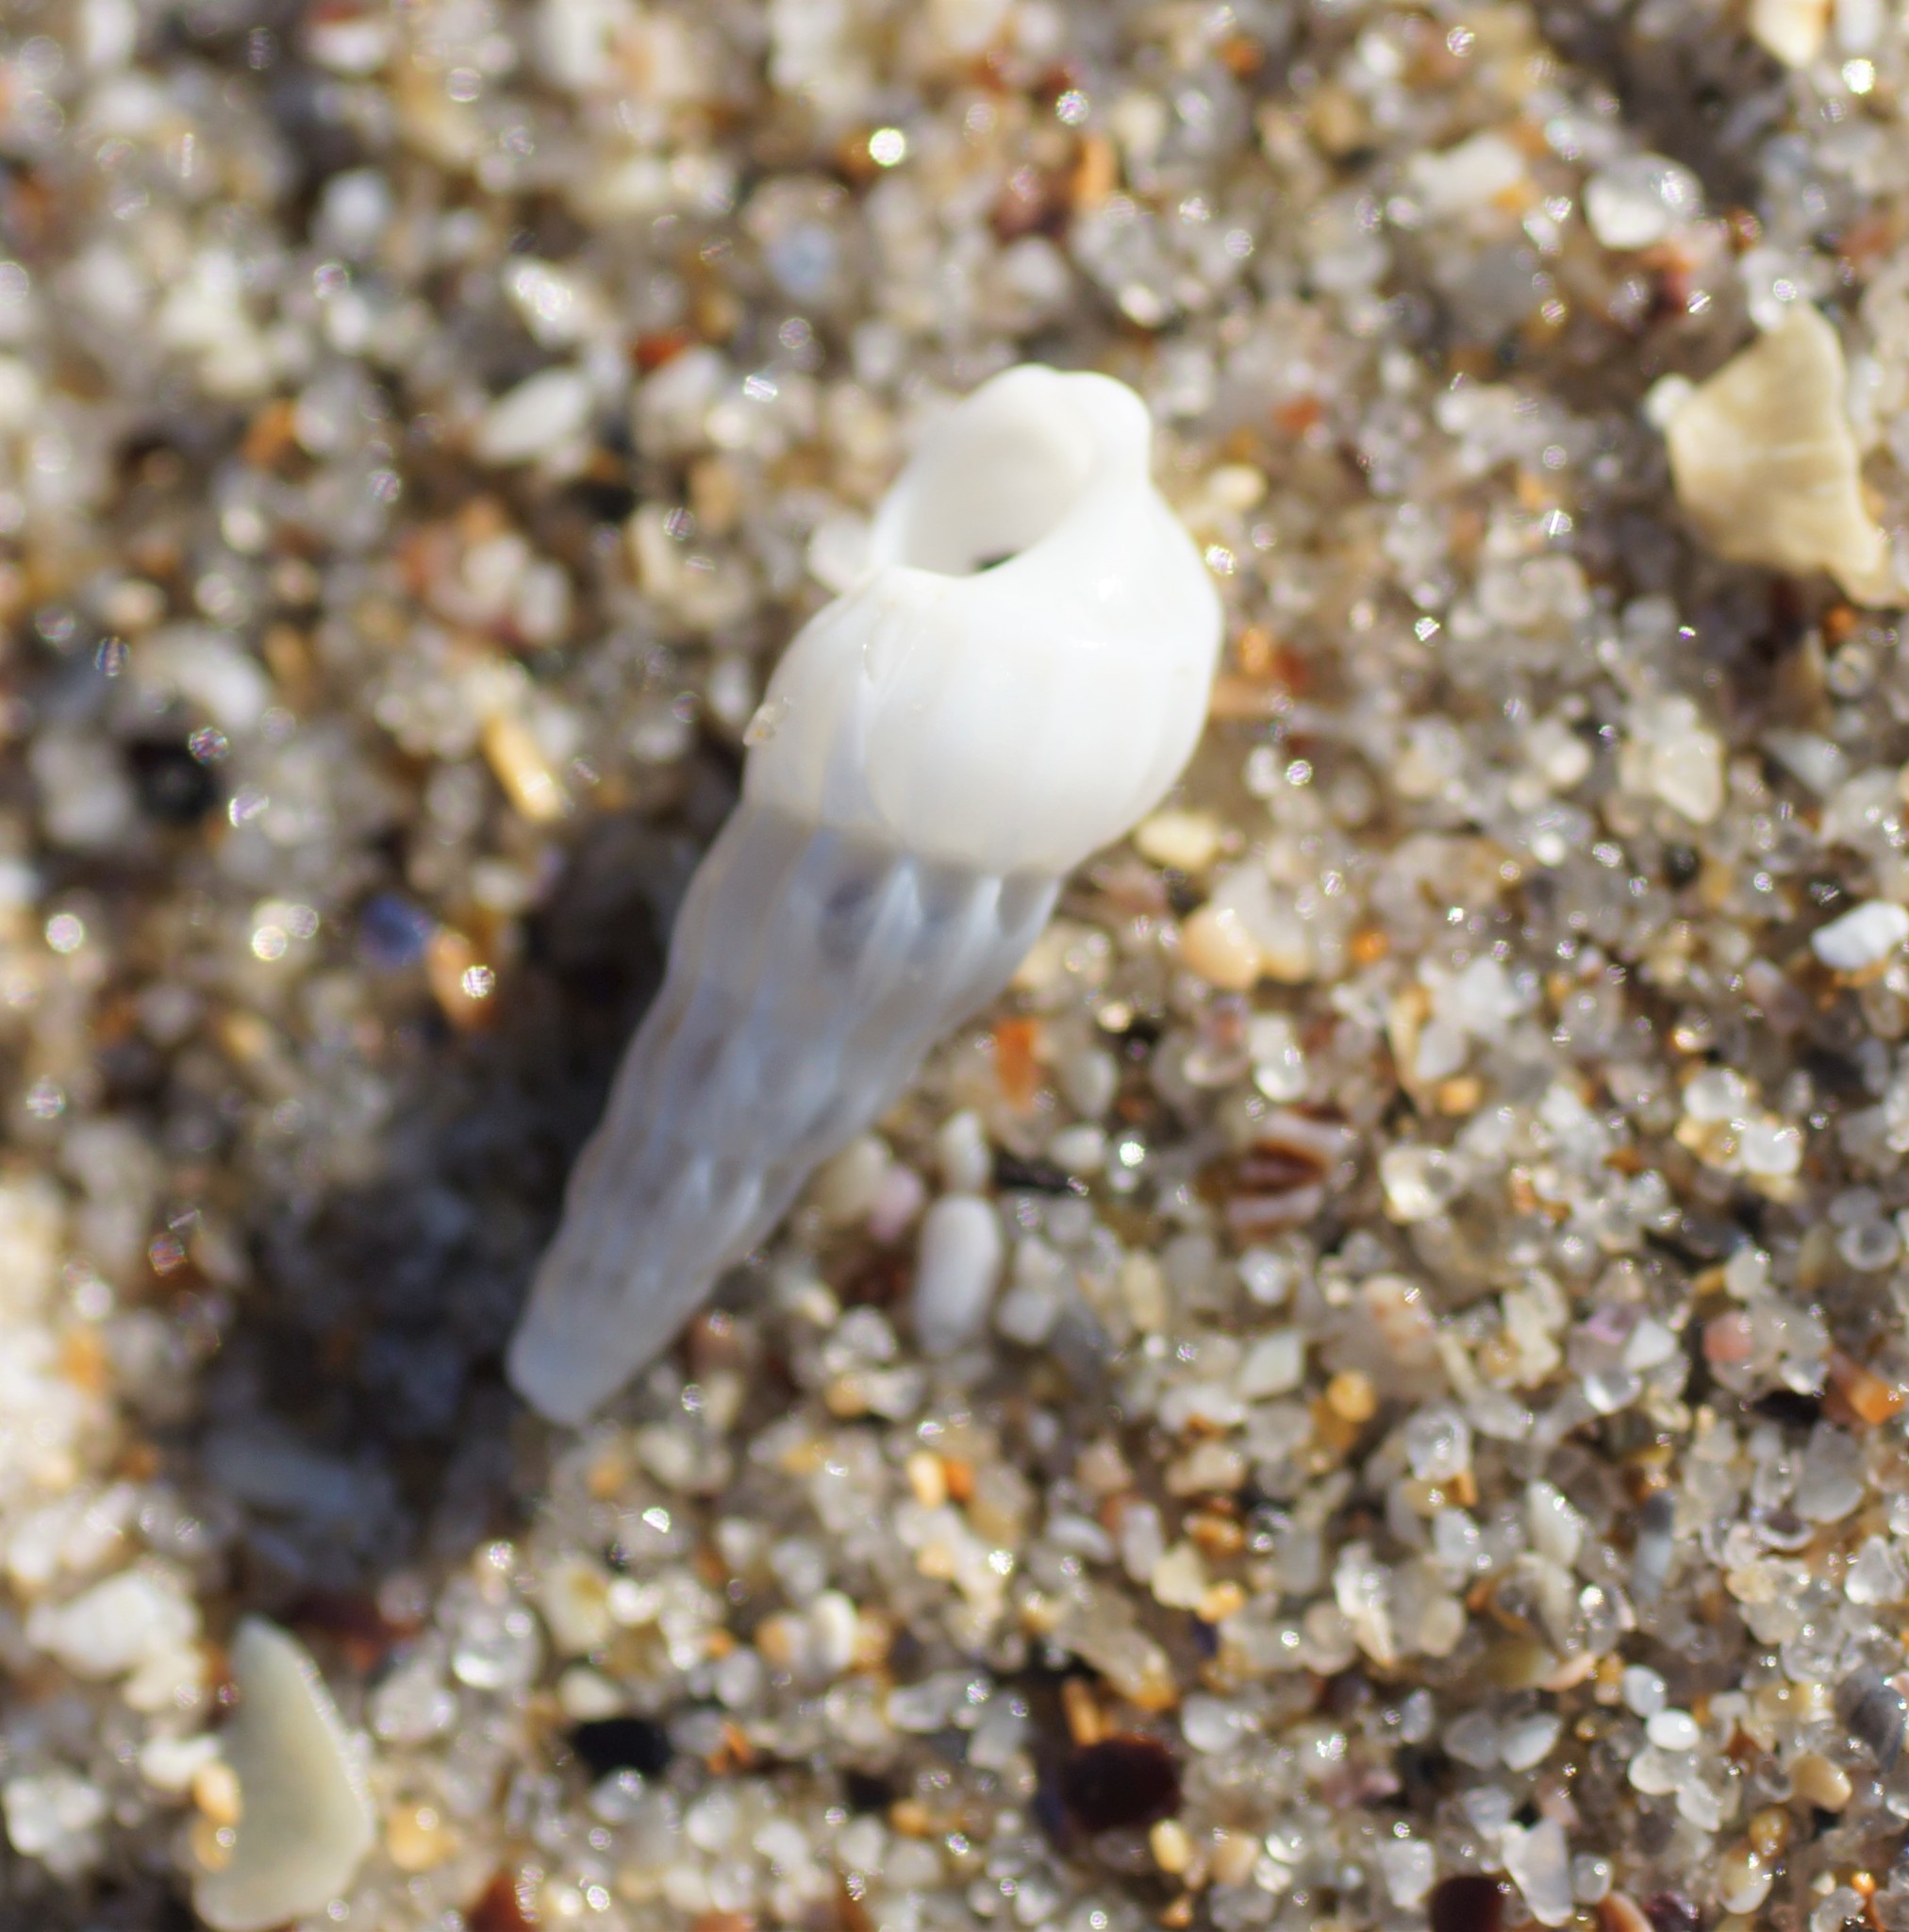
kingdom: Animalia
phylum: Mollusca
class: Gastropoda
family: Epitoniidae
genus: Opalia
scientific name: Opalia australis
